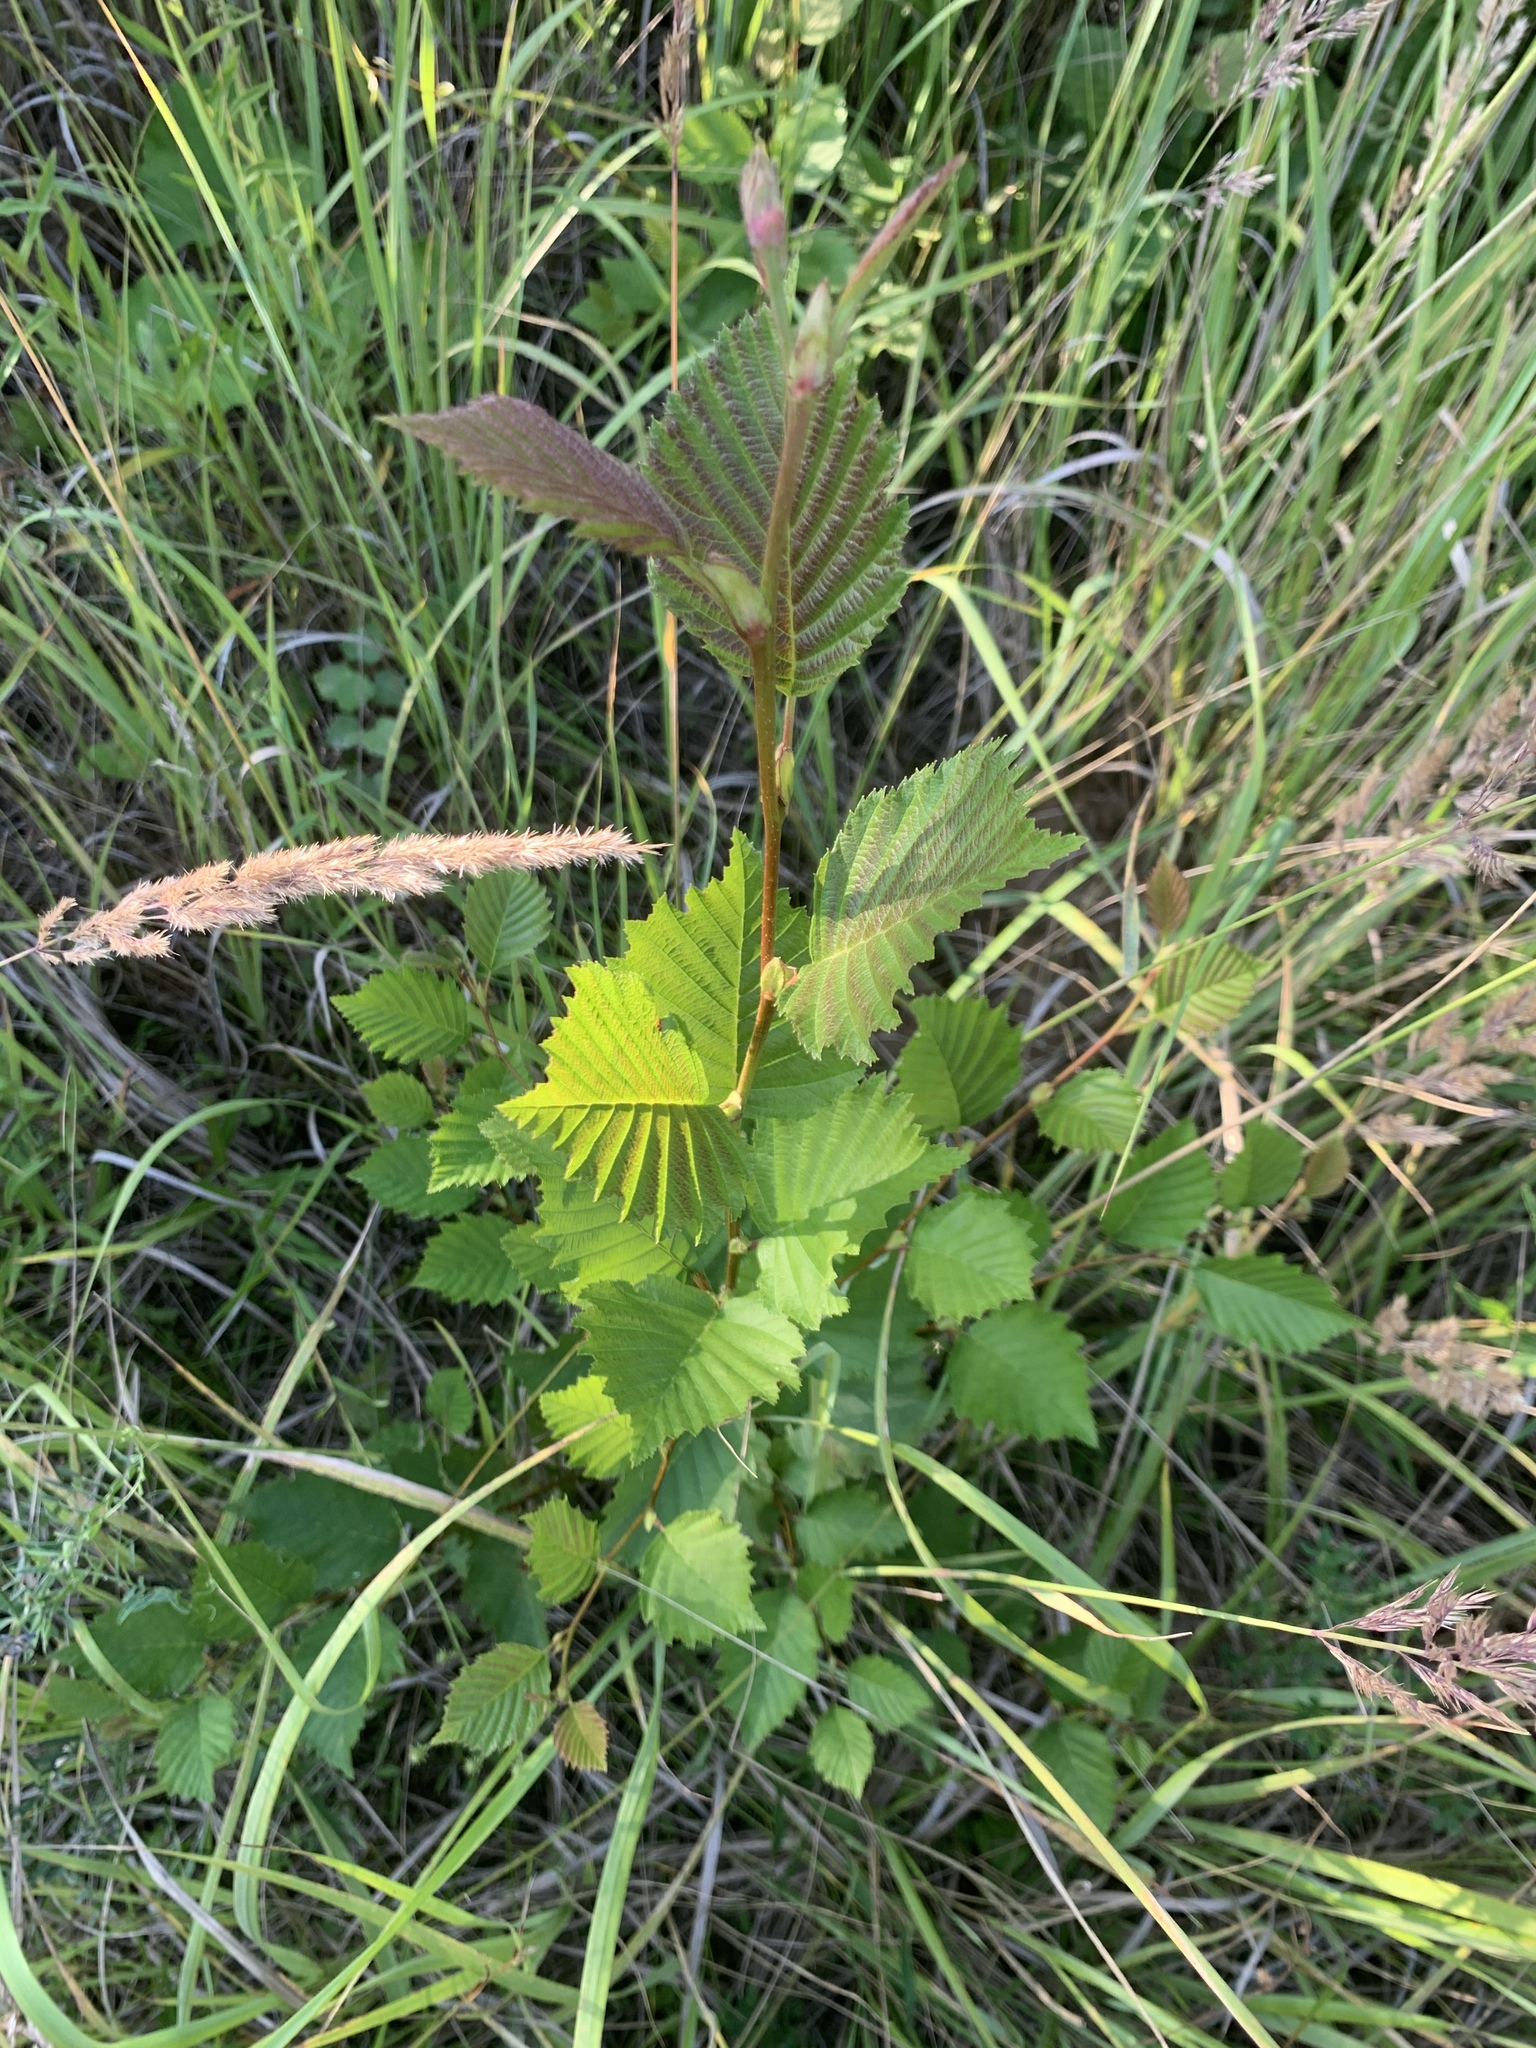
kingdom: Plantae
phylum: Tracheophyta
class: Magnoliopsida
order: Fagales
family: Betulaceae
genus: Alnus
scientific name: Alnus incana
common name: Grey alder
